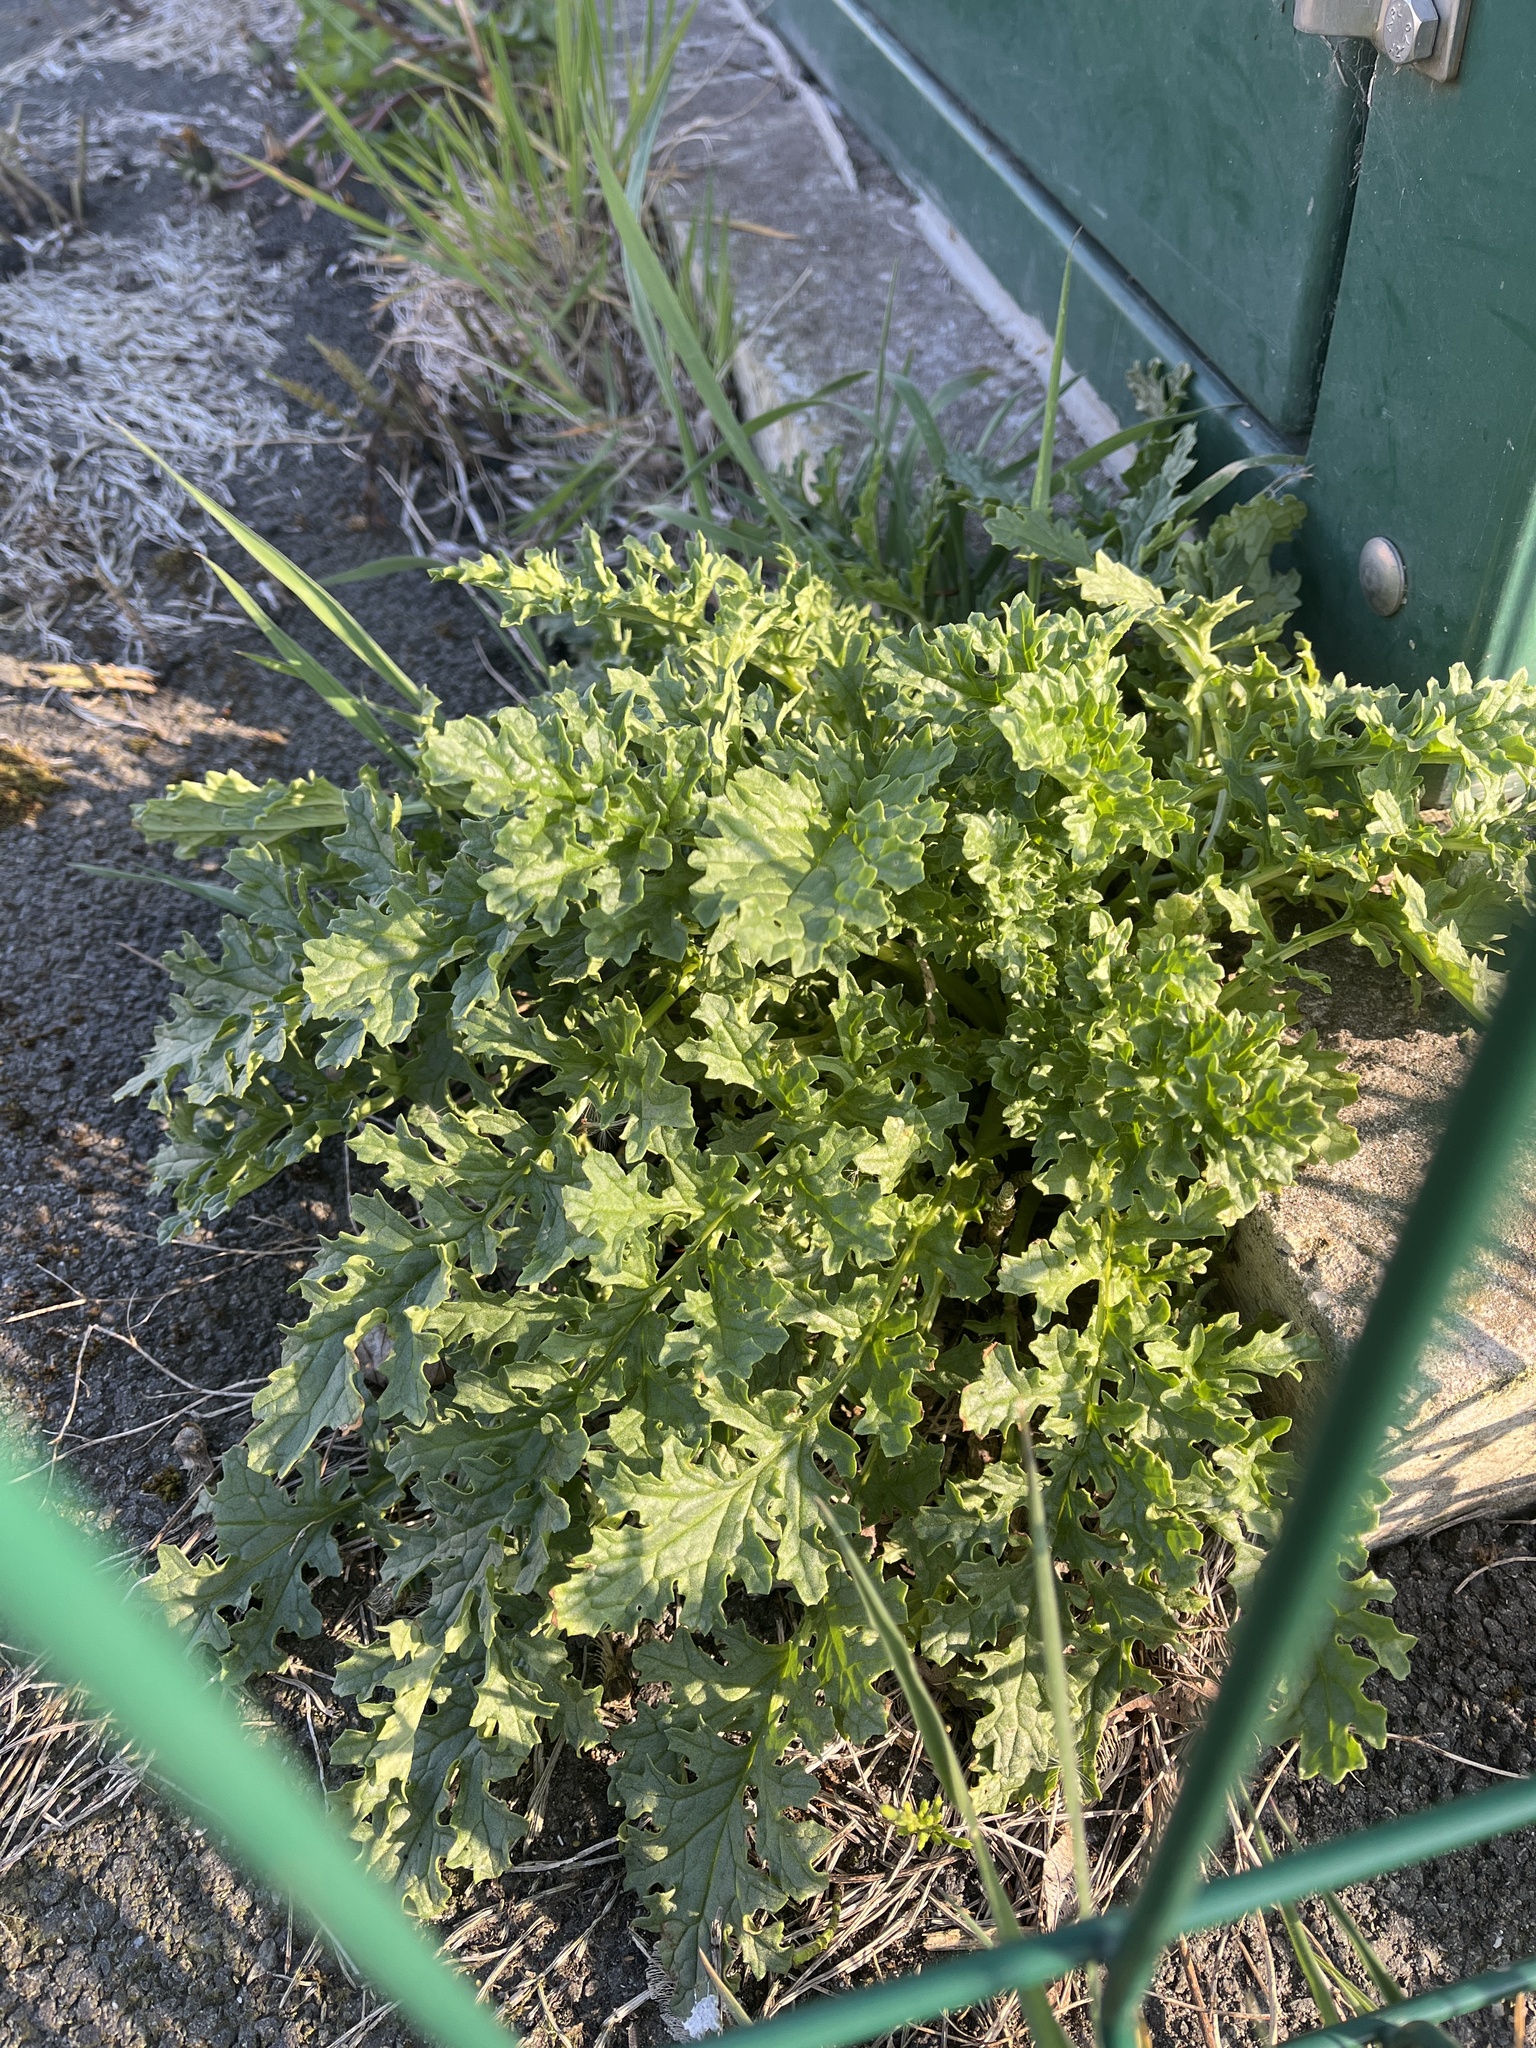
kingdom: Plantae
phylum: Tracheophyta
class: Magnoliopsida
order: Asterales
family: Asteraceae
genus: Jacobaea
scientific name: Jacobaea vulgaris
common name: Stinking willie
